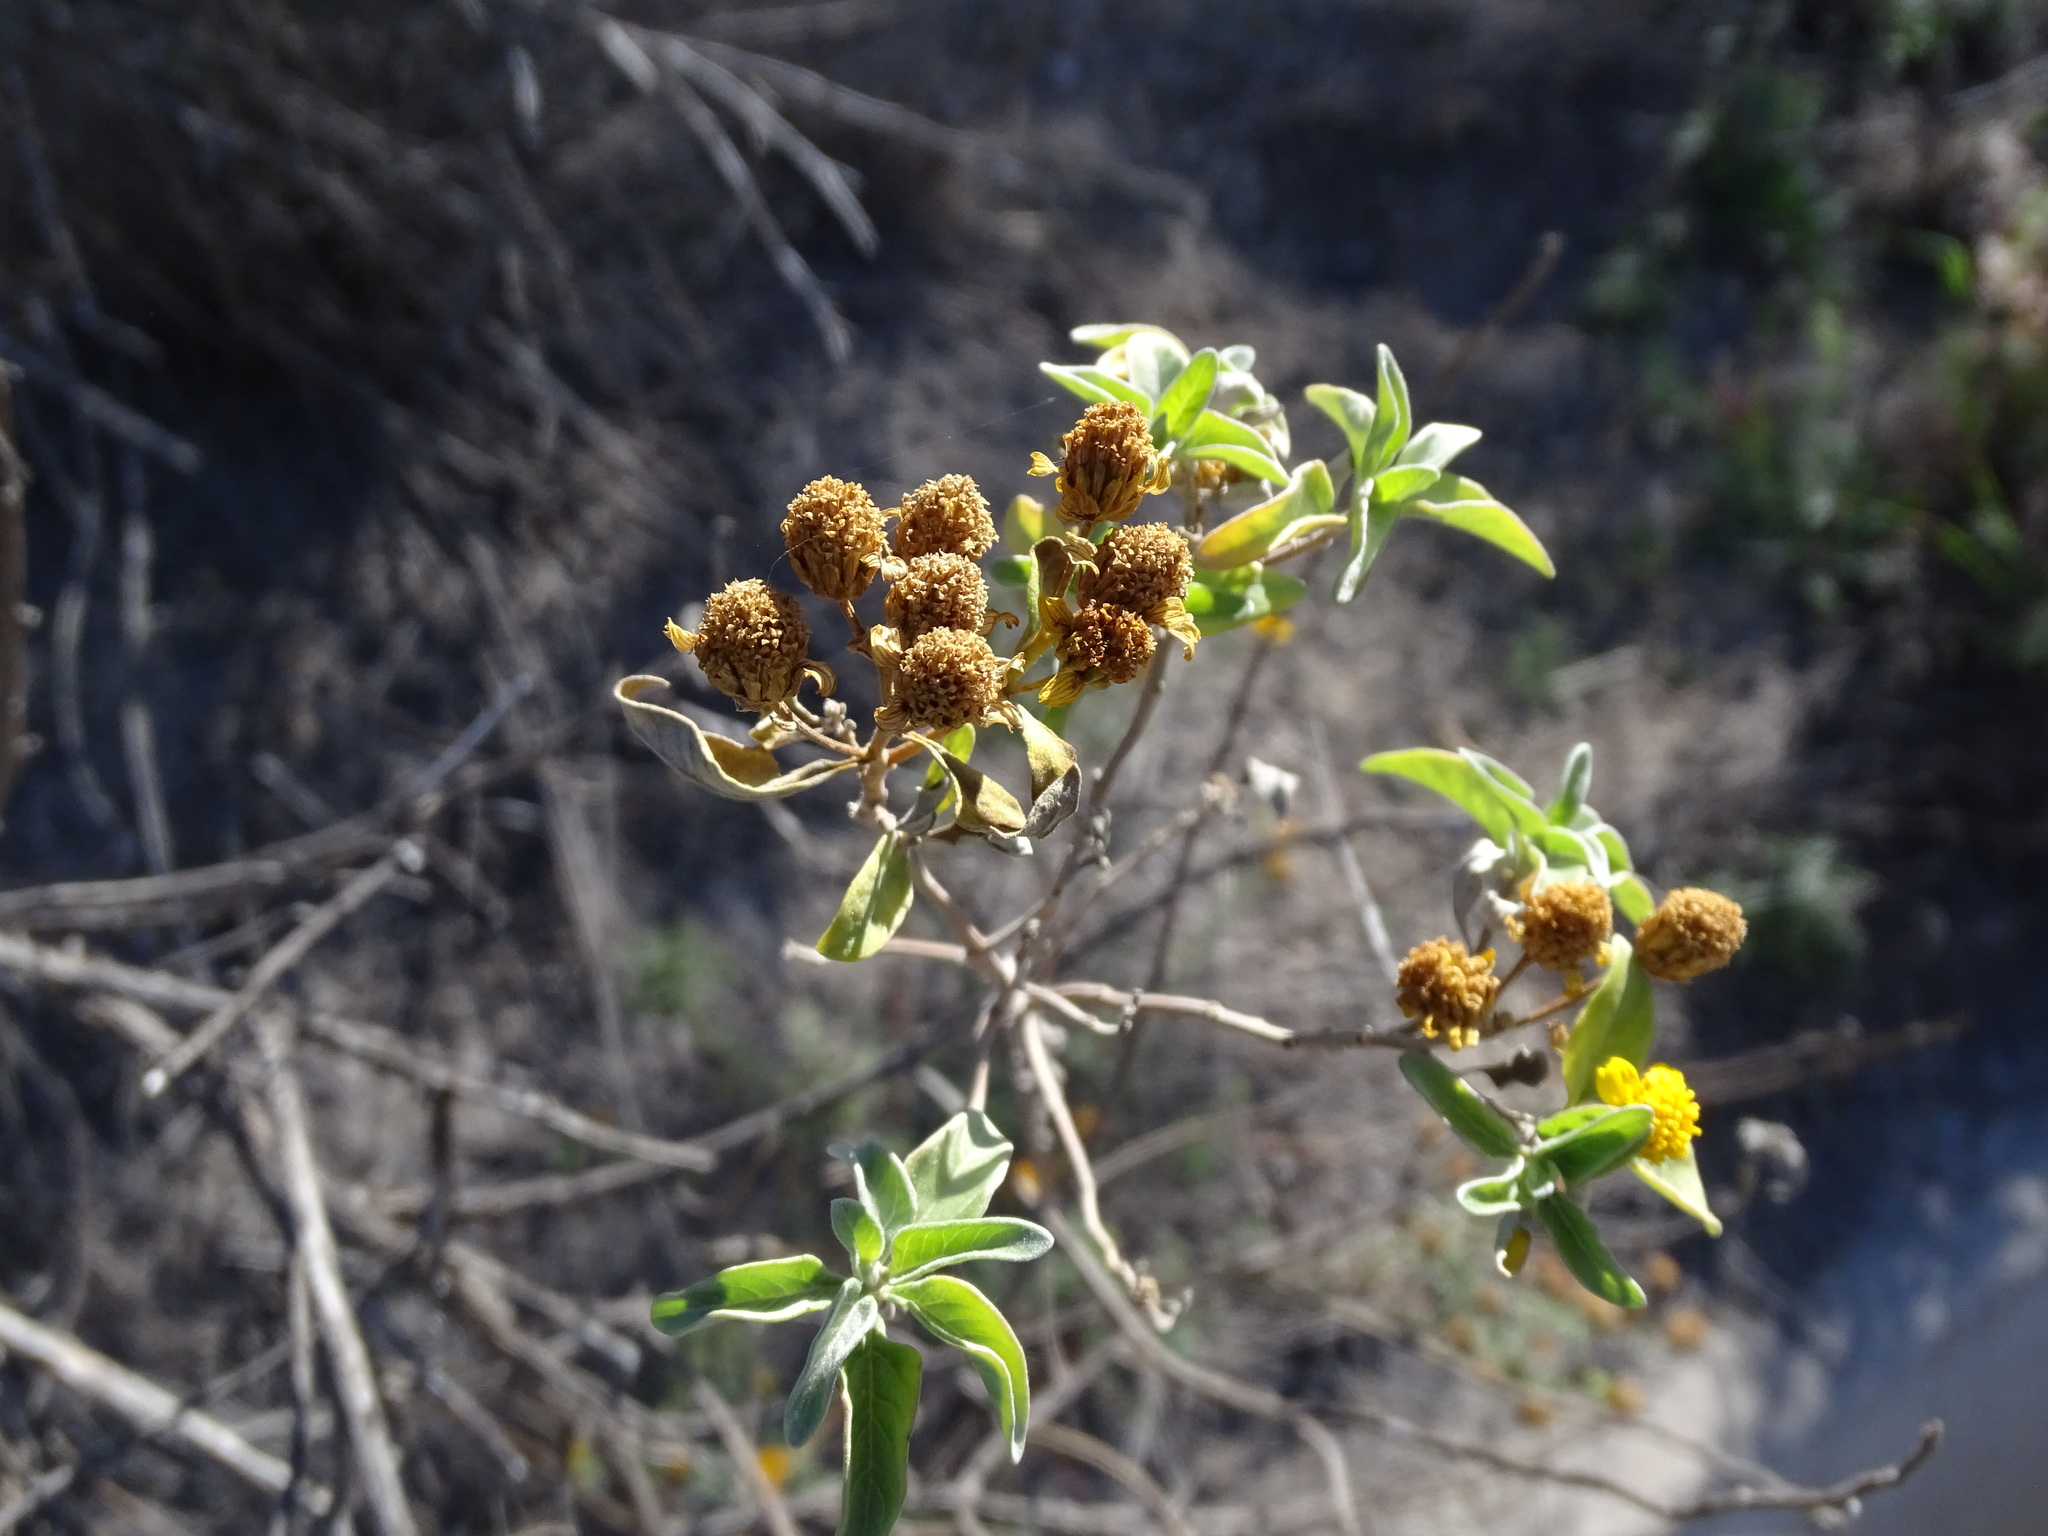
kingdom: Plantae
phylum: Tracheophyta
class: Magnoliopsida
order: Asterales
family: Asteraceae
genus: Zaluzania
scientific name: Zaluzania augusta
